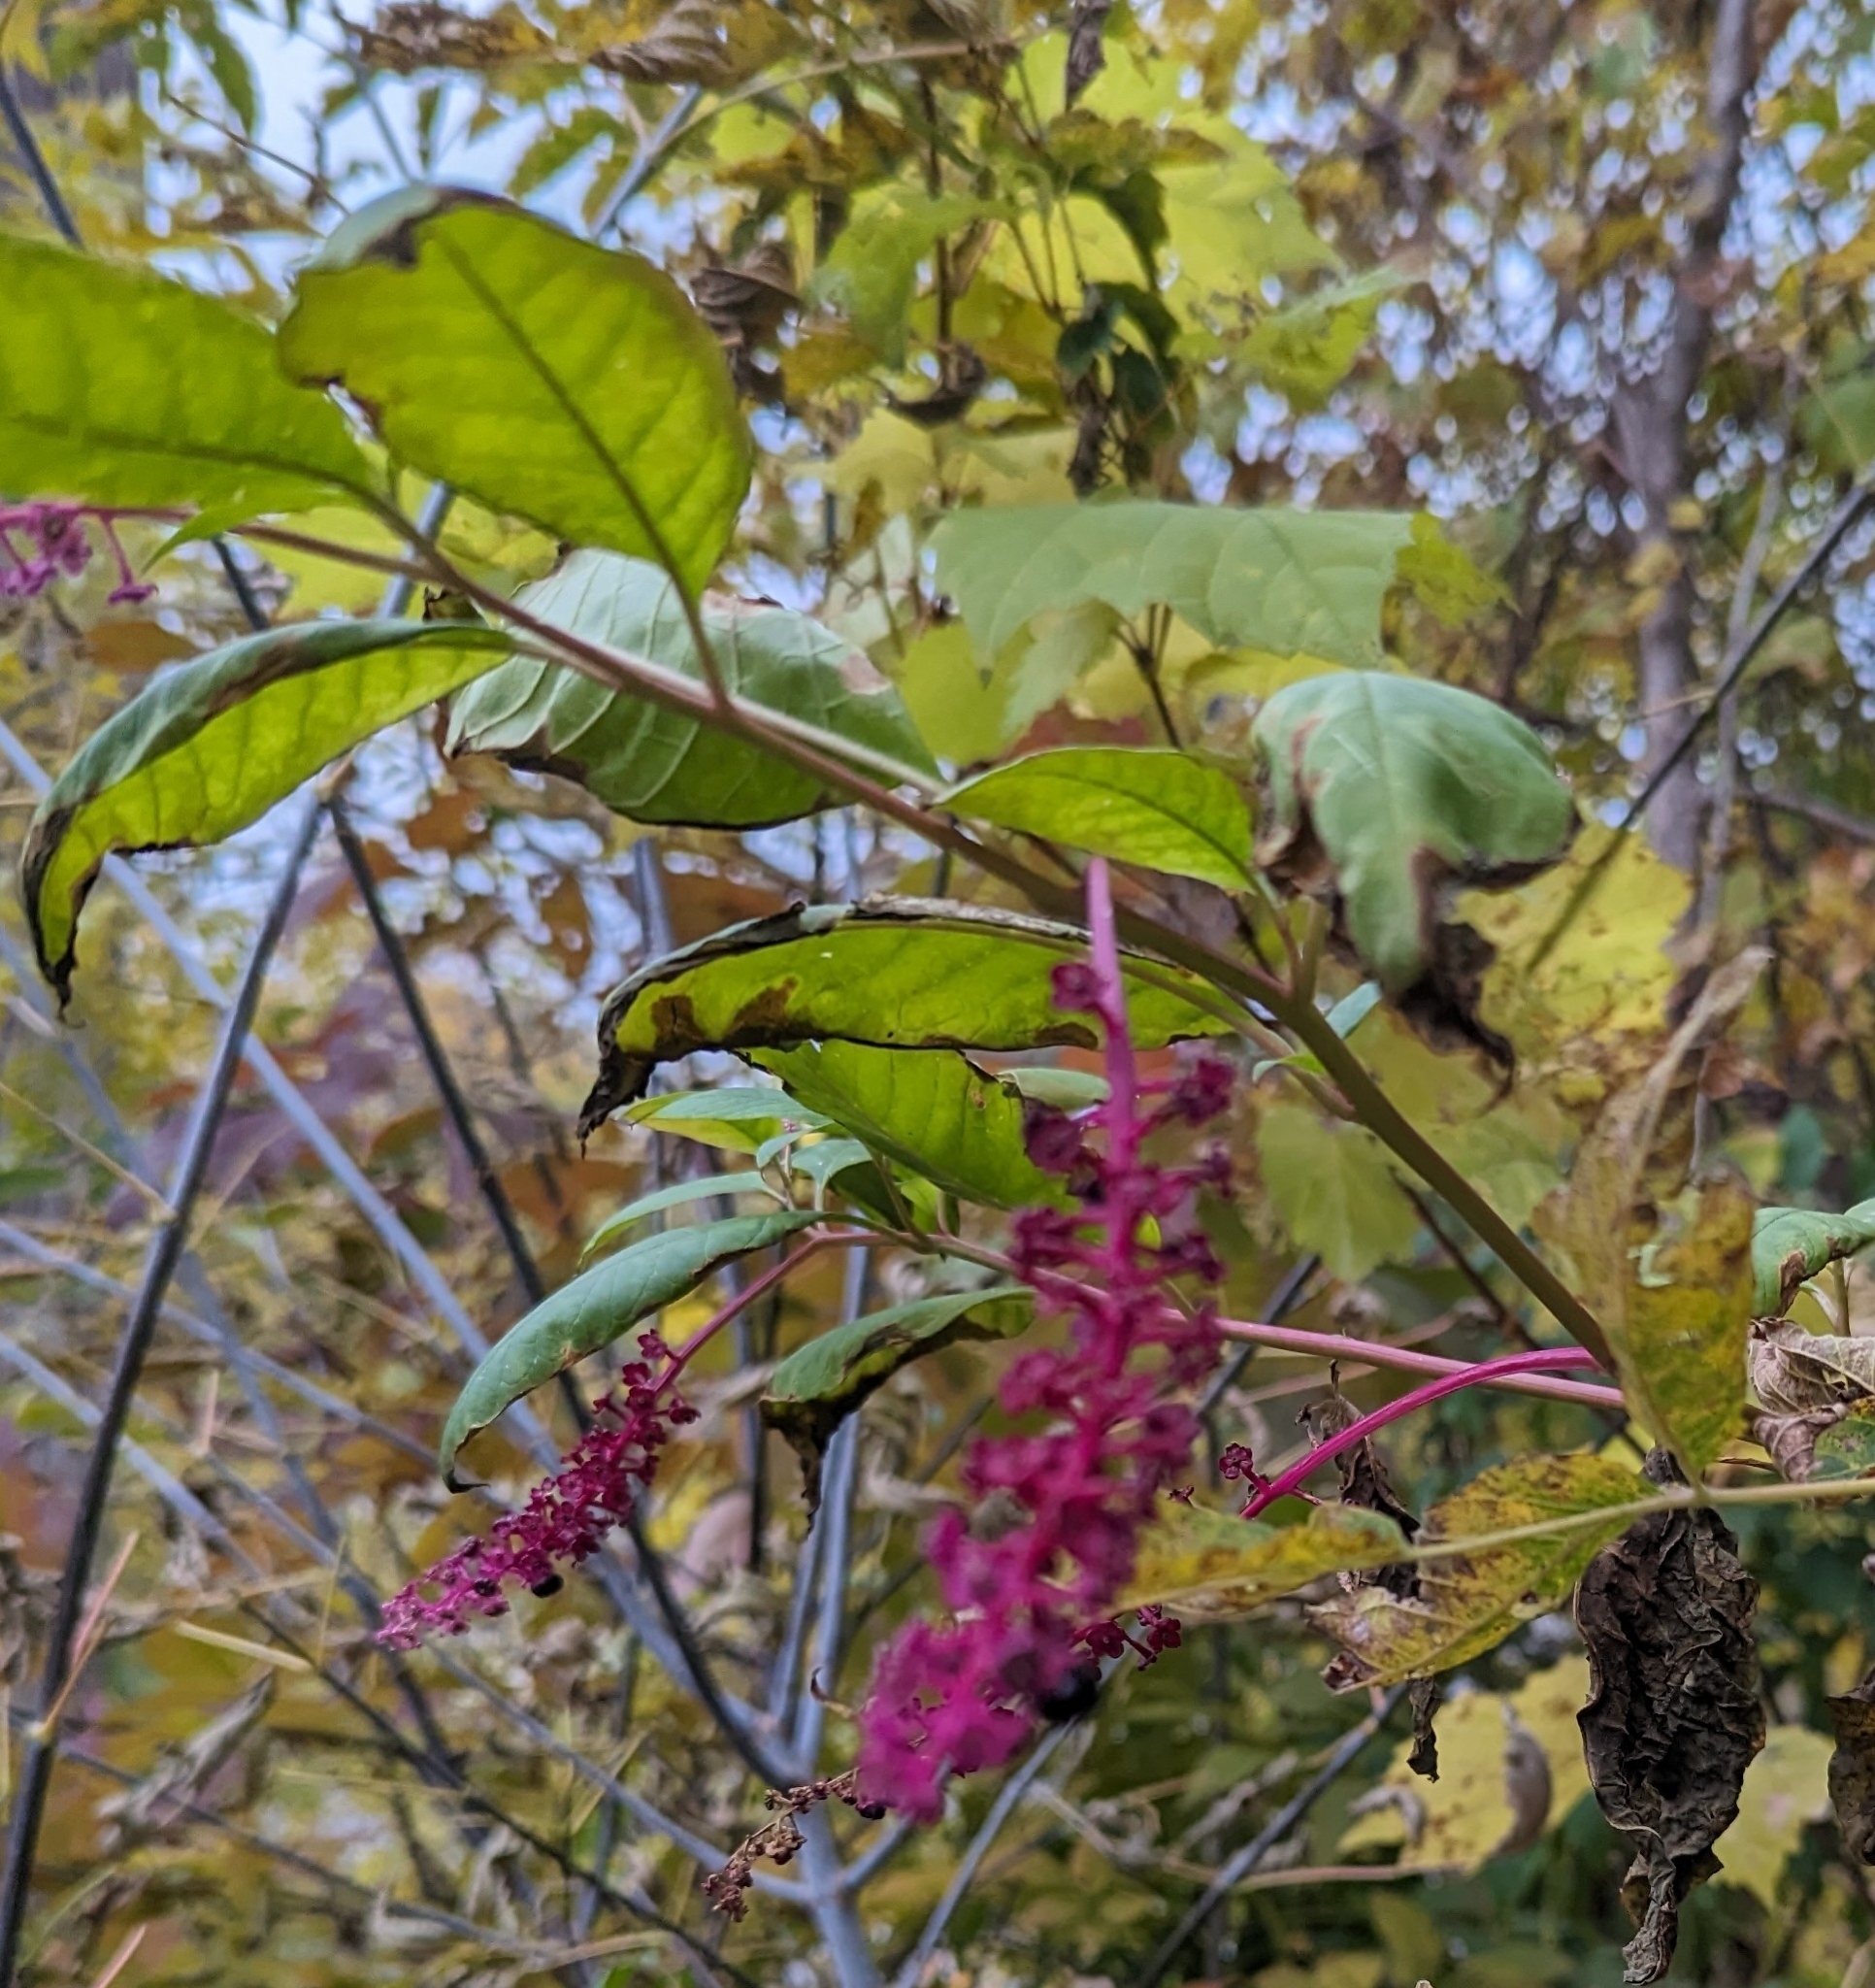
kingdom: Plantae
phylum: Tracheophyta
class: Magnoliopsida
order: Caryophyllales
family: Phytolaccaceae
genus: Phytolacca
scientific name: Phytolacca americana
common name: American pokeweed
